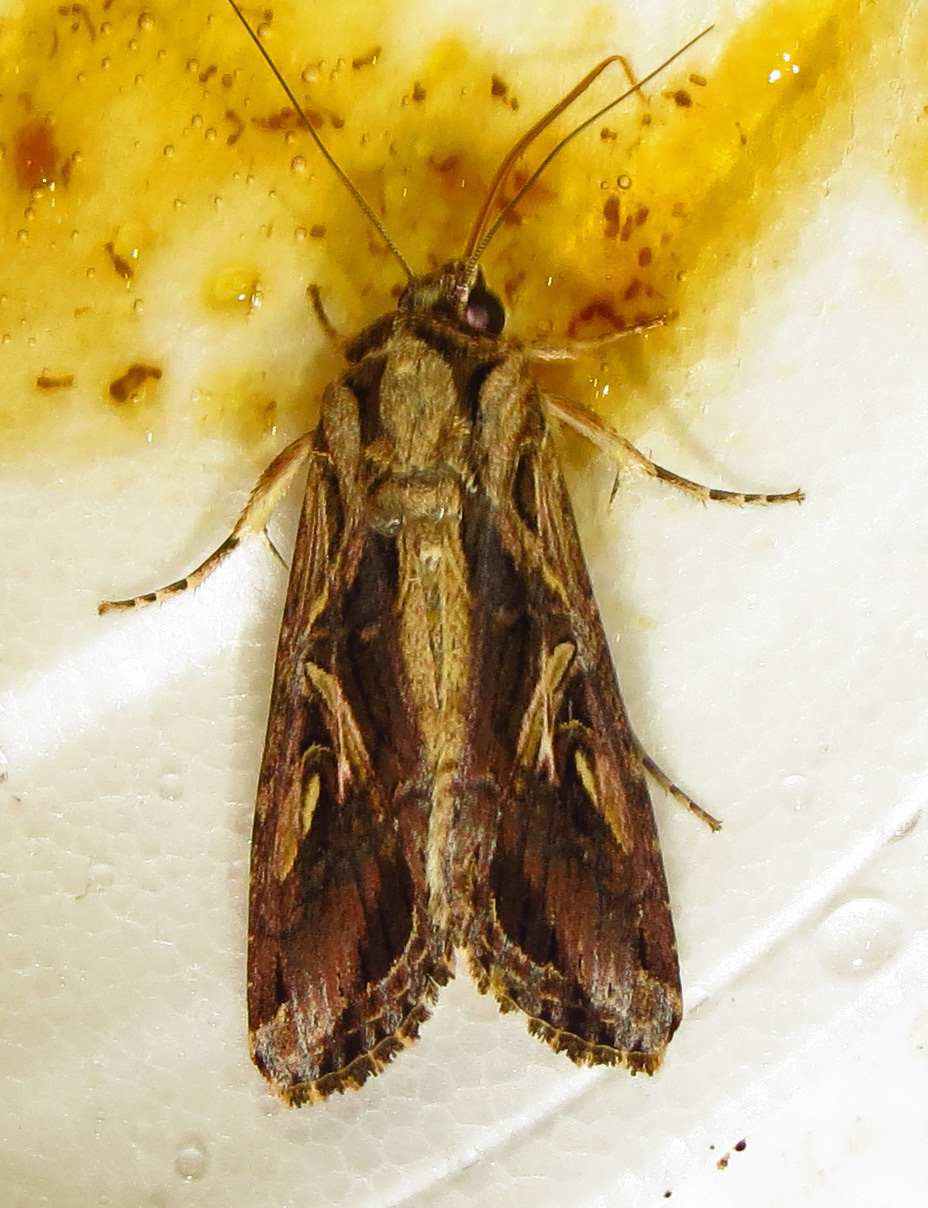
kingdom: Animalia
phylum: Arthropoda
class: Insecta
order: Lepidoptera
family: Noctuidae
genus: Spodoptera
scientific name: Spodoptera dolichos
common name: Sweetpotato armyworm
